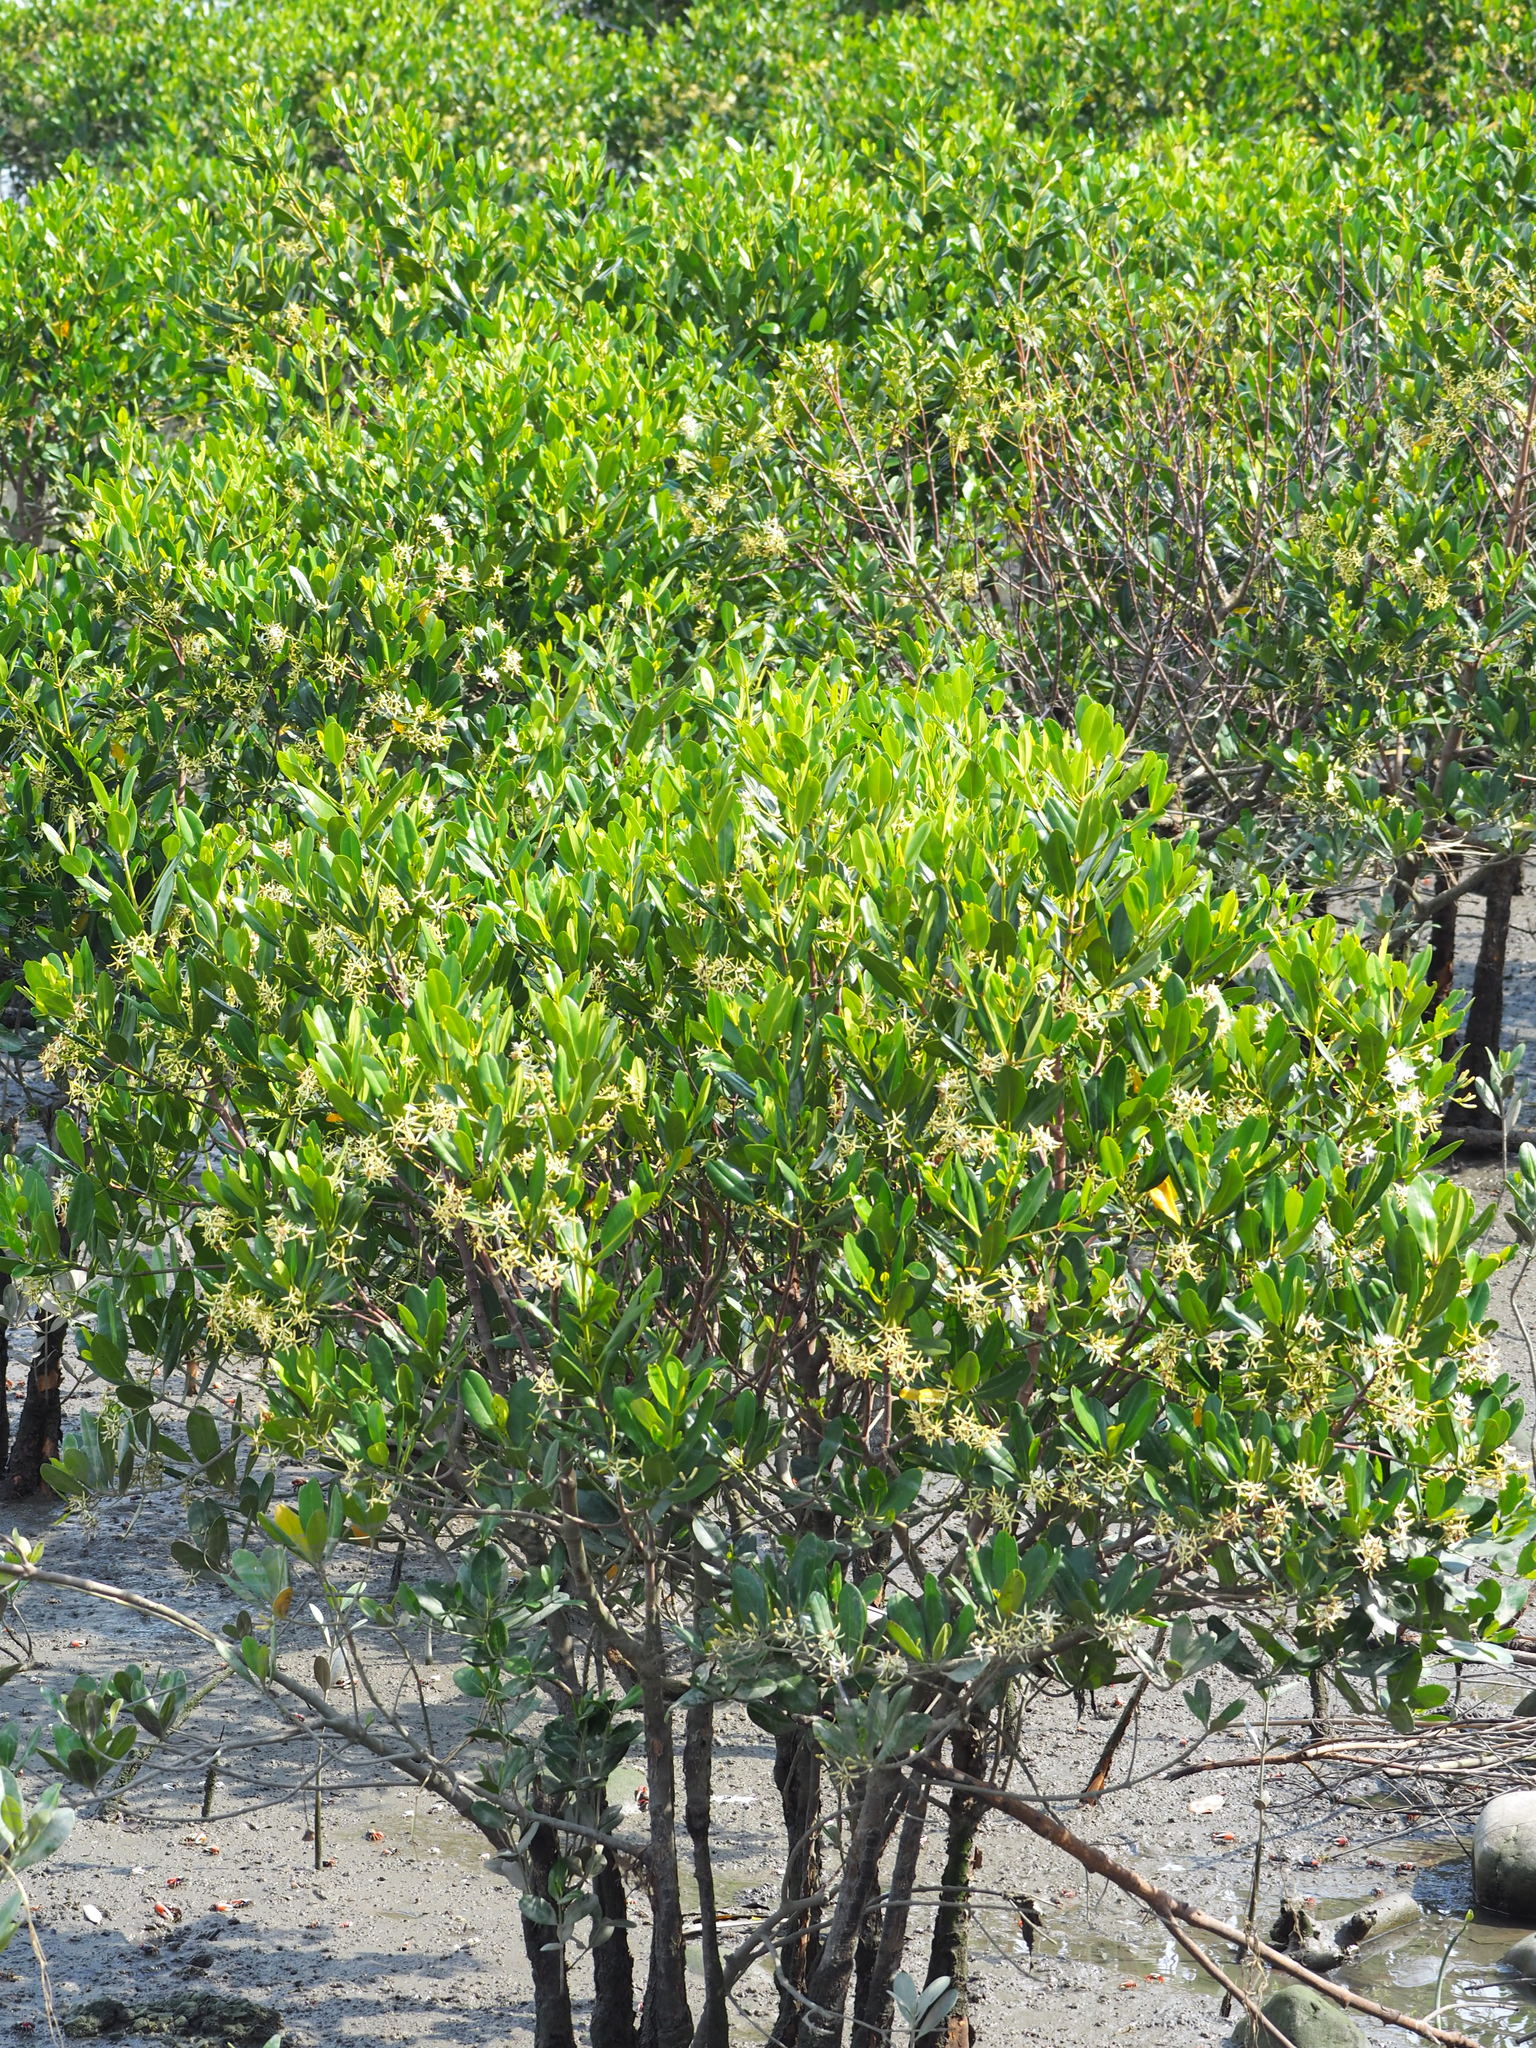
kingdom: Plantae
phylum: Tracheophyta
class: Magnoliopsida
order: Malpighiales
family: Rhizophoraceae
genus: Kandelia
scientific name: Kandelia obovata
